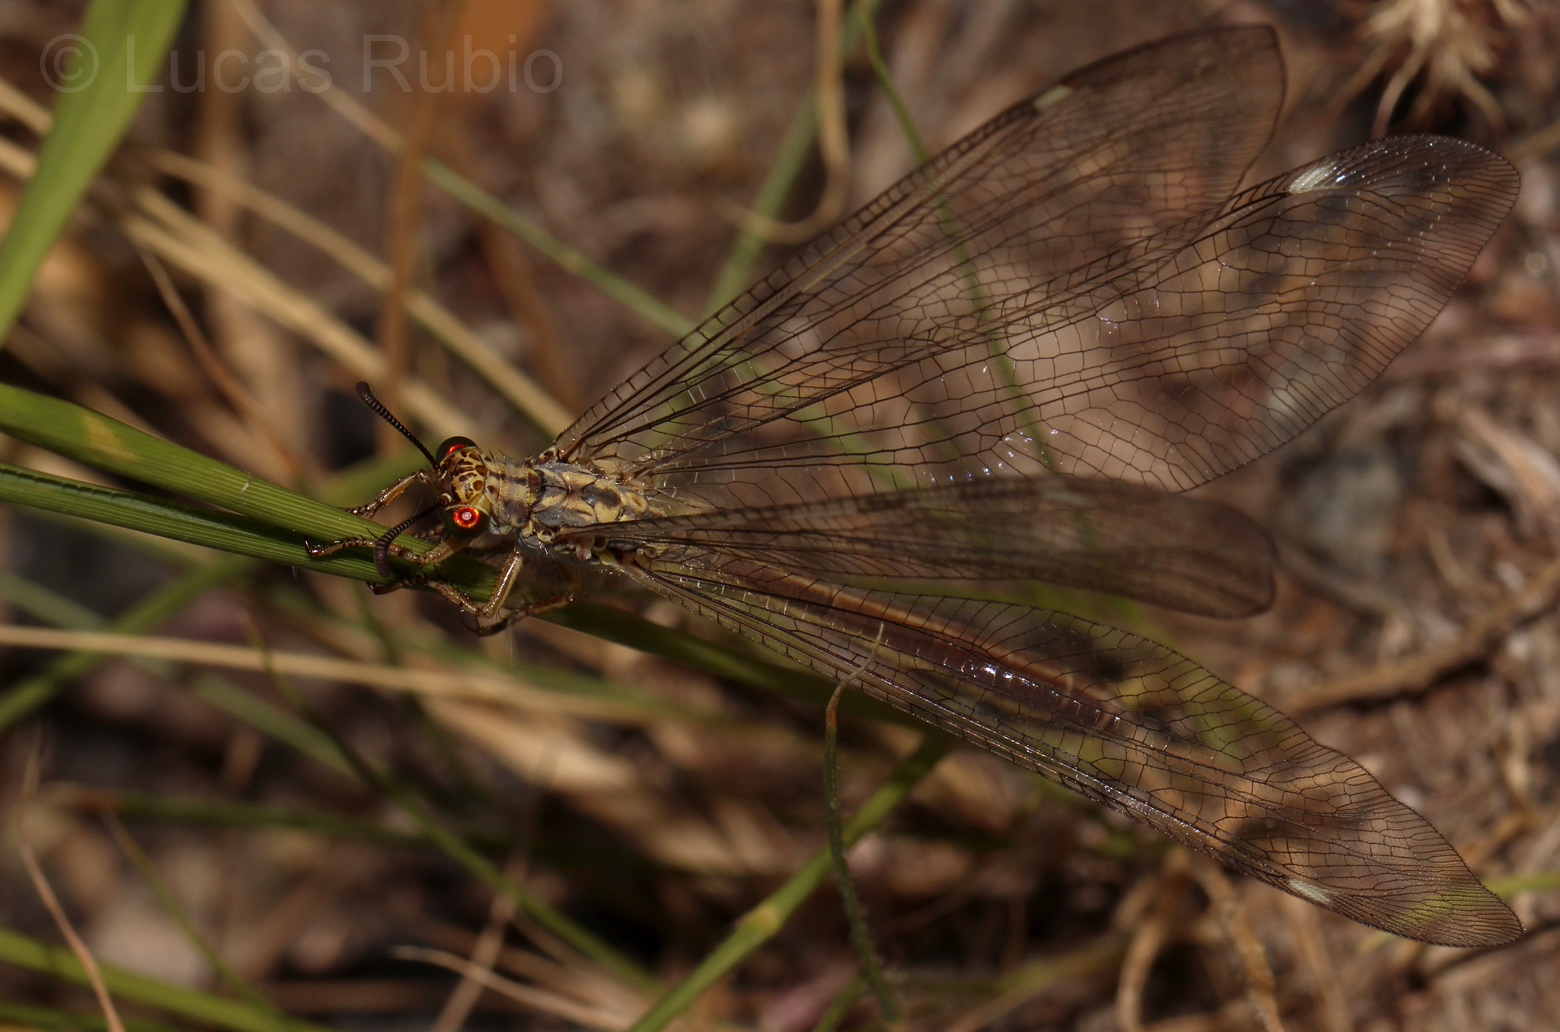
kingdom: Animalia
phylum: Arthropoda
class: Insecta
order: Neuroptera
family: Myrmeleontidae
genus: Dimares
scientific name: Dimares elegans
